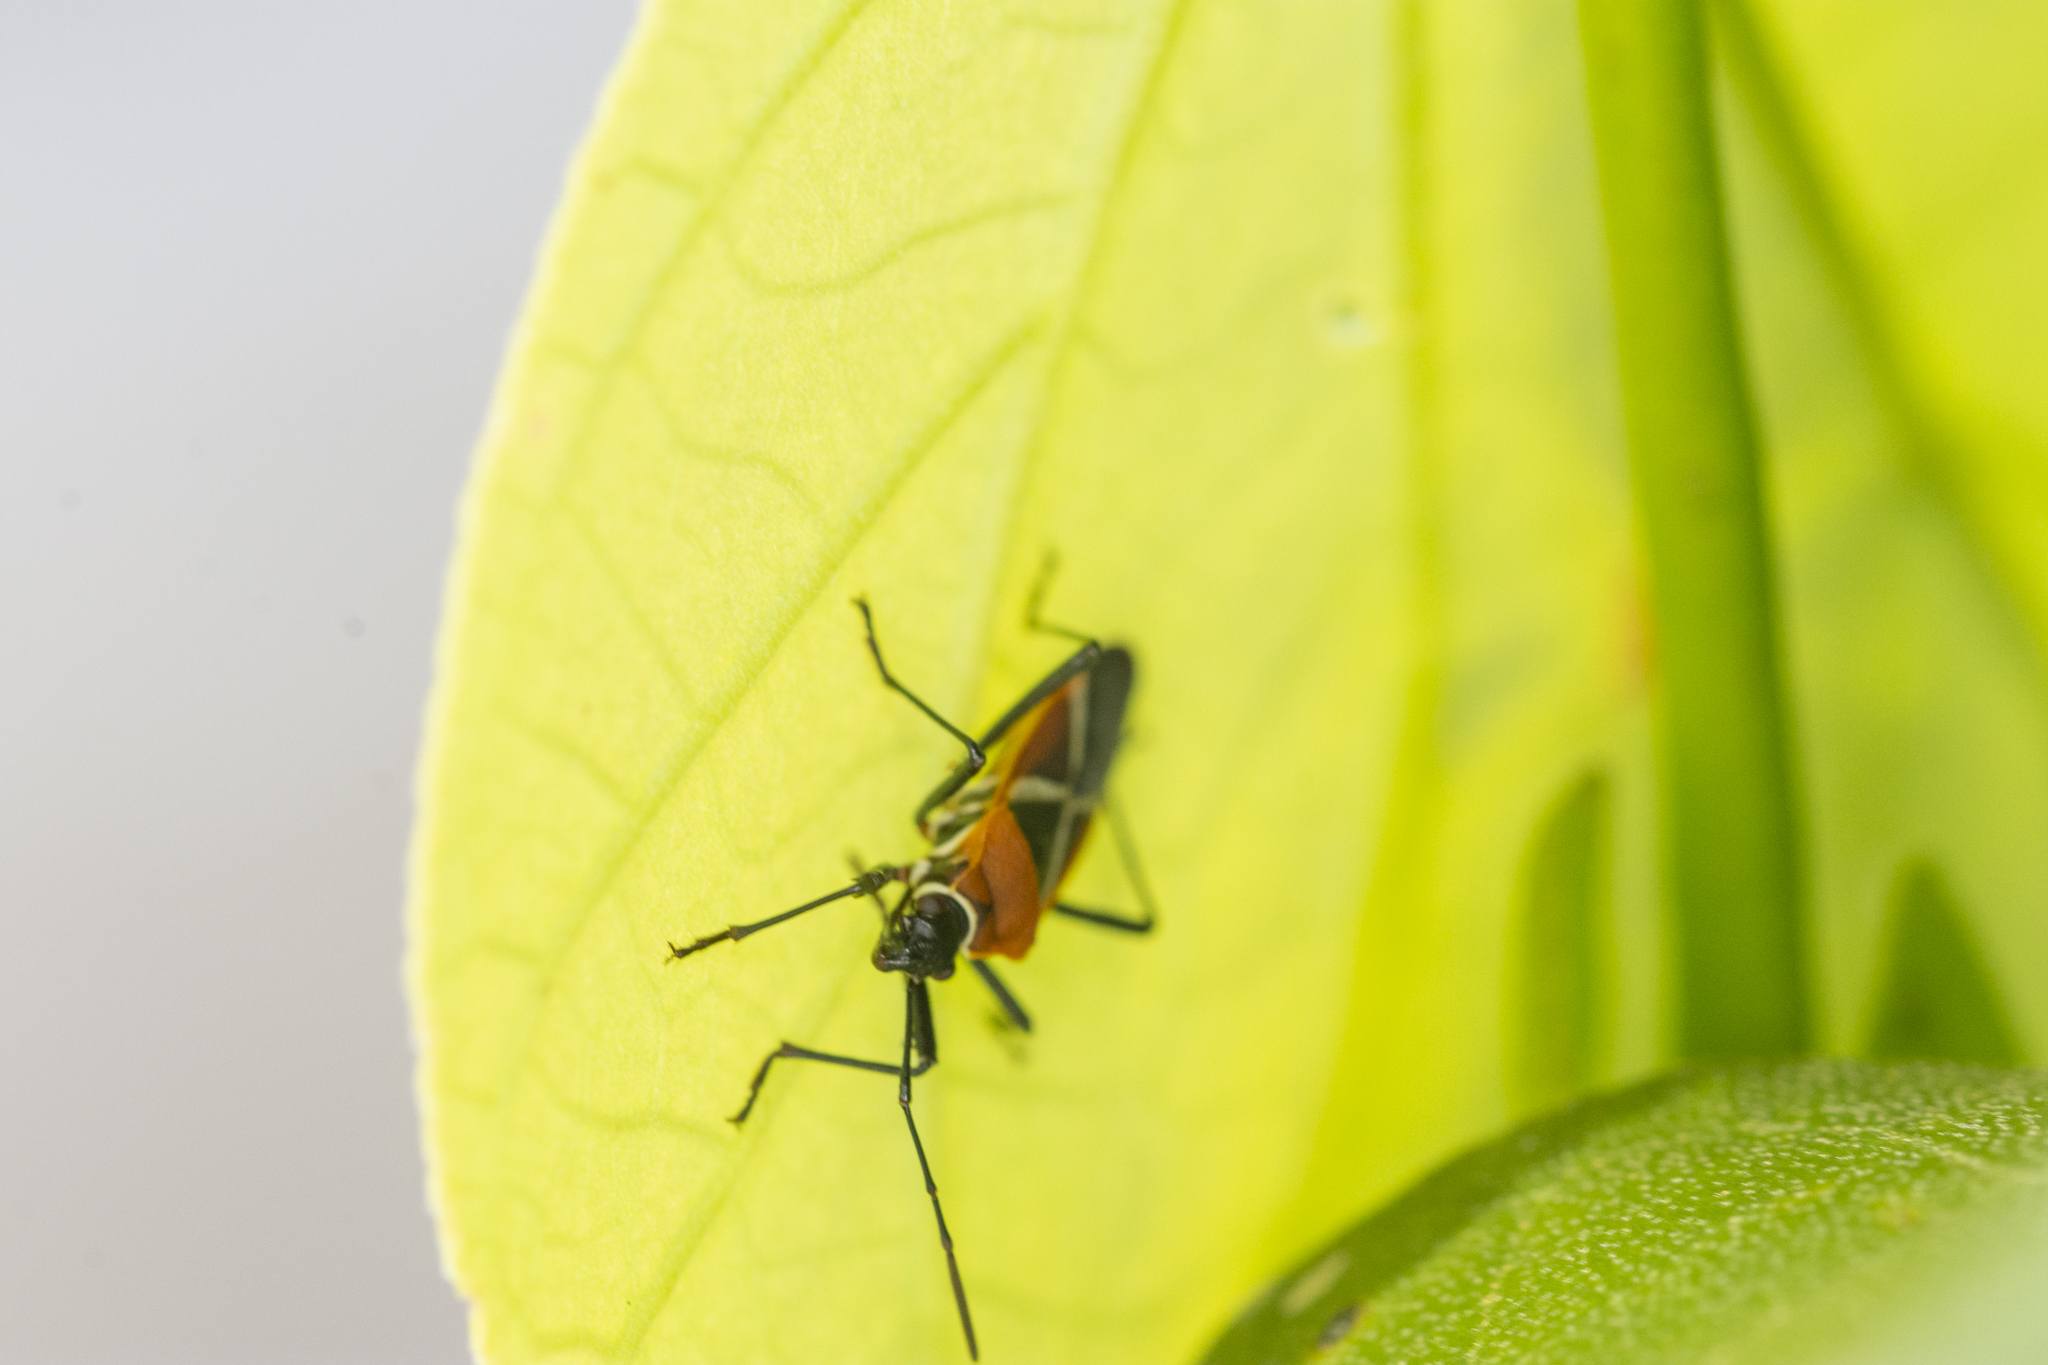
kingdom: Animalia
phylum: Arthropoda
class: Insecta
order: Hemiptera
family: Pyrrhocoridae
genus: Dysdercus
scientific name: Dysdercus decussatus
